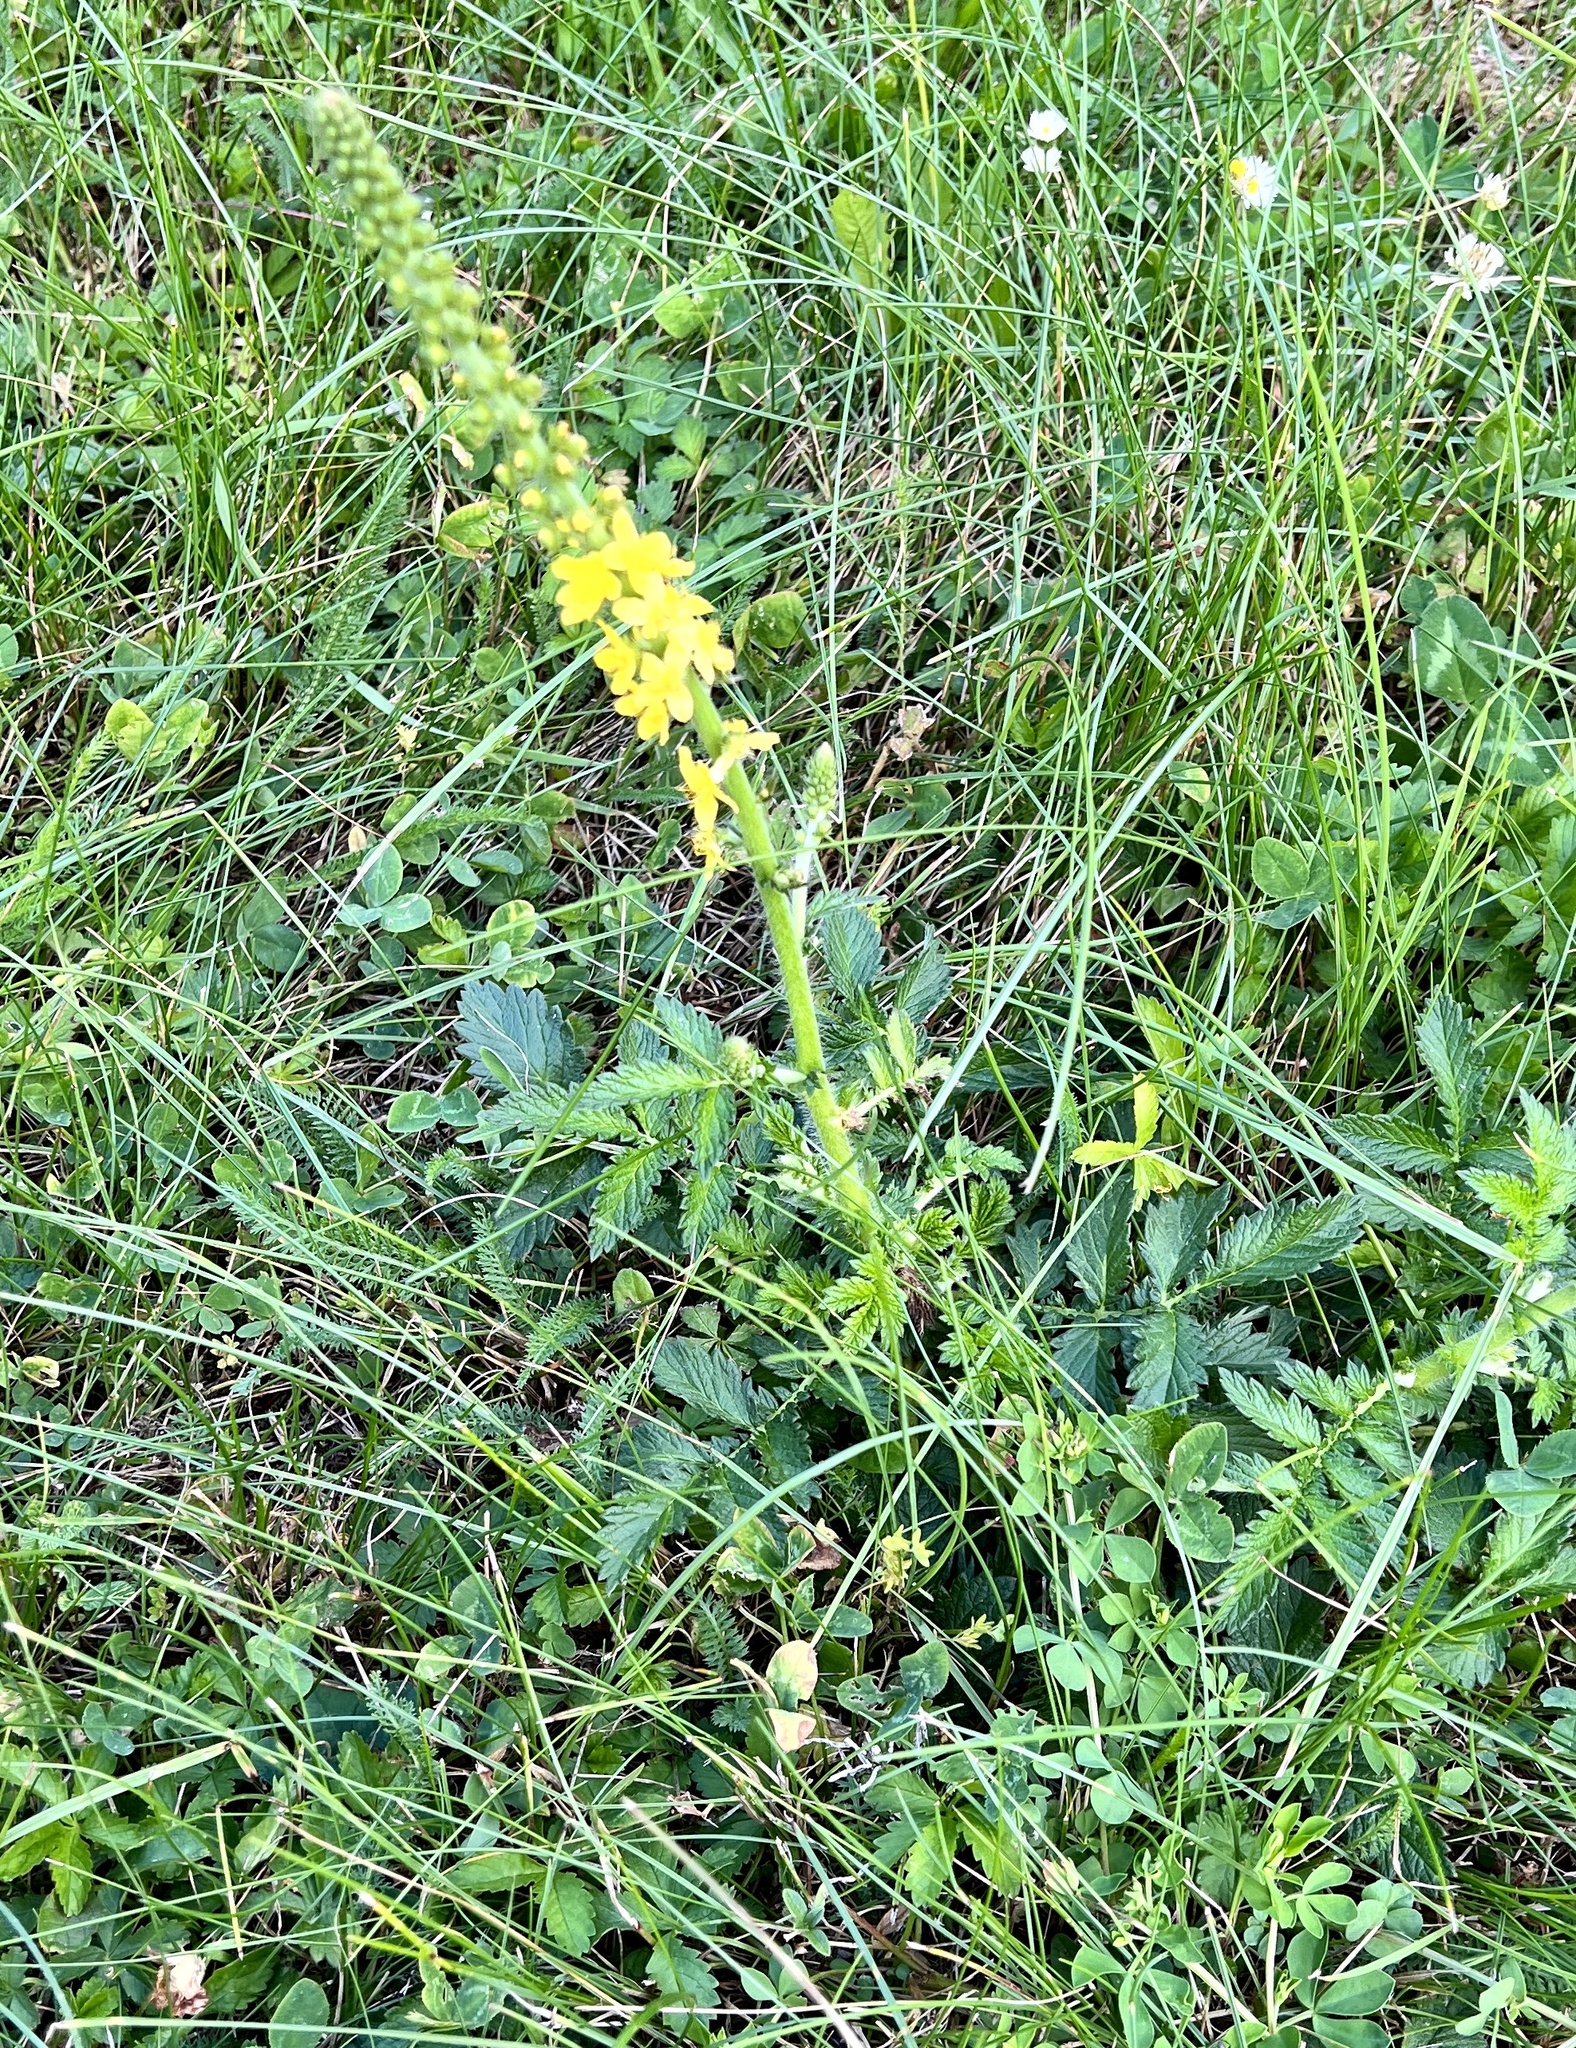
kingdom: Plantae
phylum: Tracheophyta
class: Magnoliopsida
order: Rosales
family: Rosaceae
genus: Agrimonia
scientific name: Agrimonia eupatoria
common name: Agrimony
